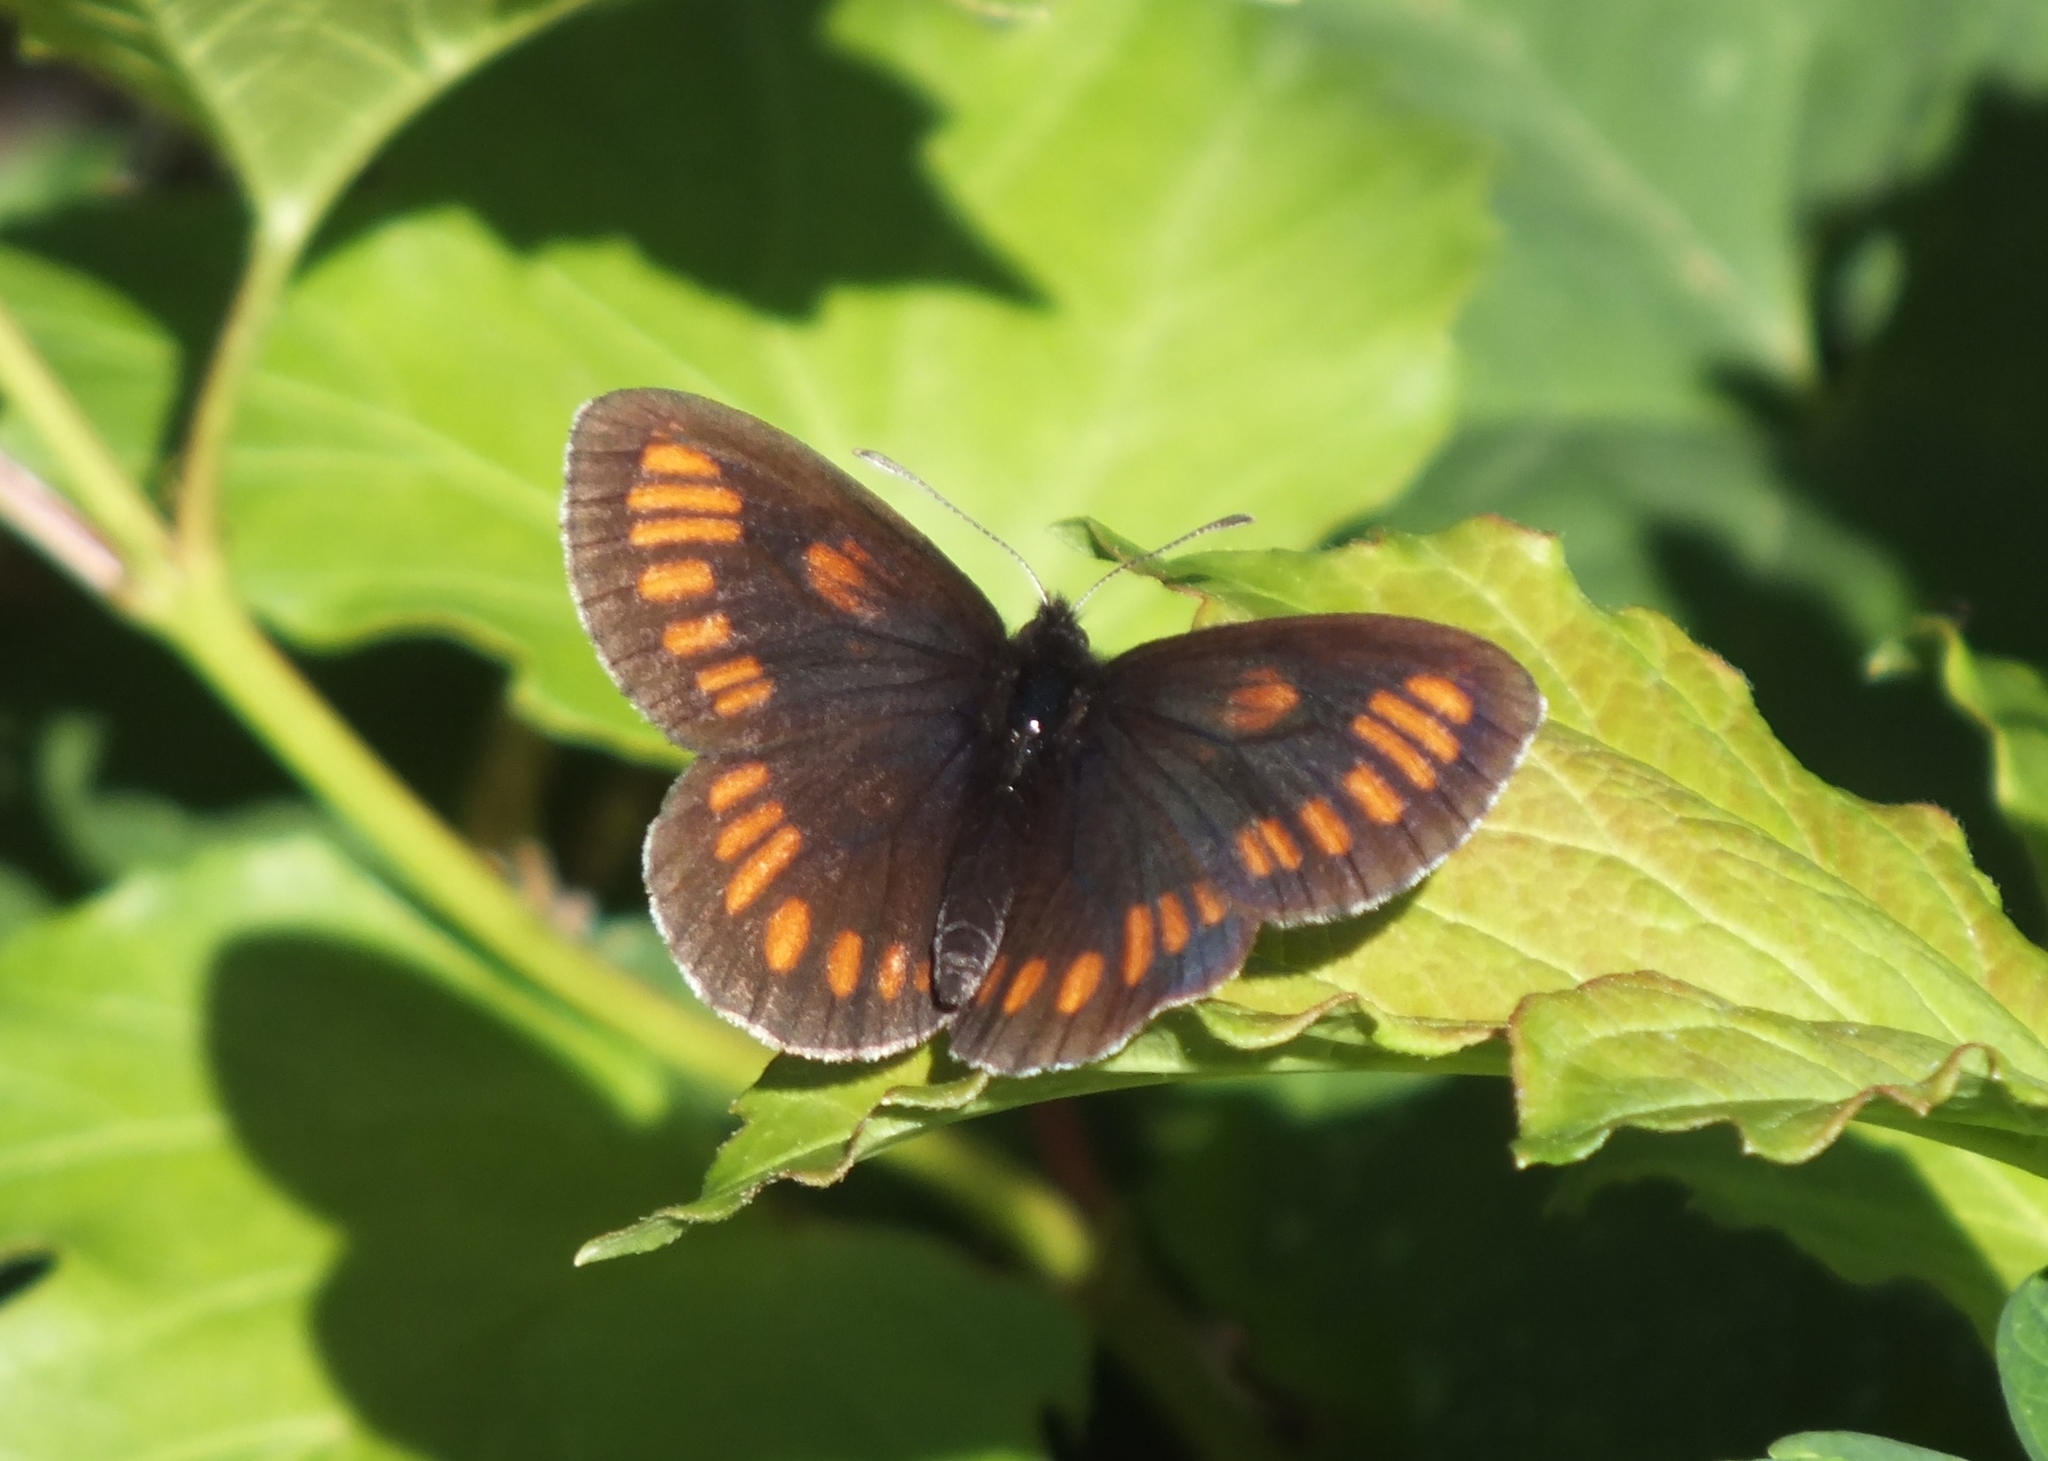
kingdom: Animalia
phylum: Arthropoda
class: Insecta
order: Lepidoptera
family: Nymphalidae
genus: Erebia
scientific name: Erebia maurisius
